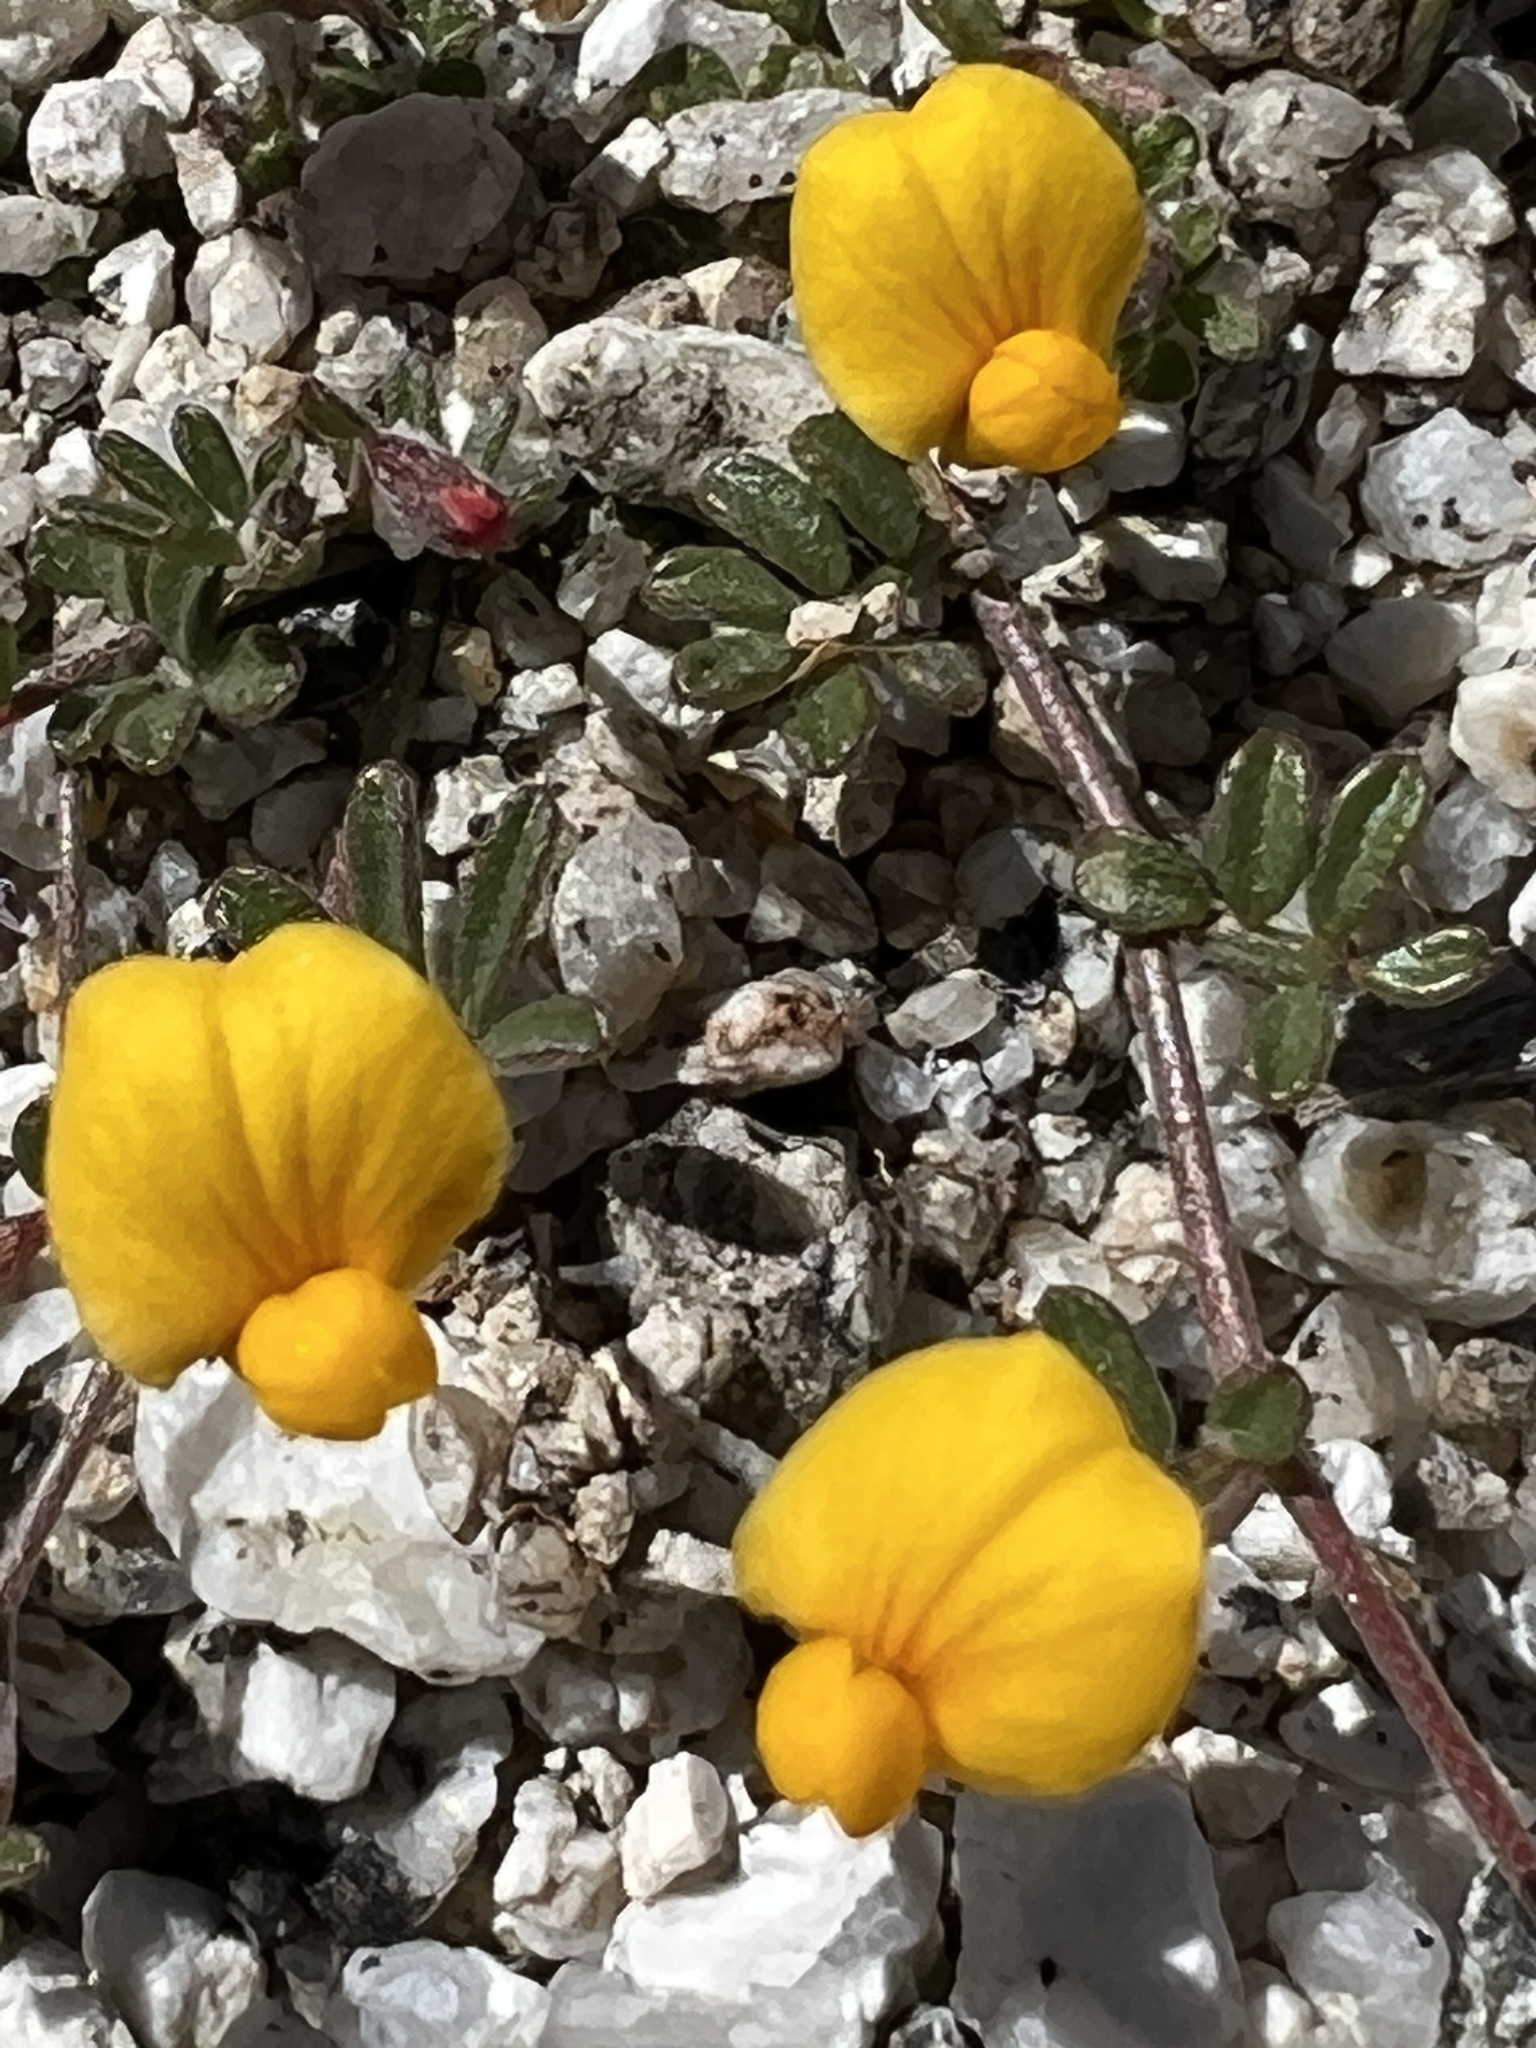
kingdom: Plantae
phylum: Tracheophyta
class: Magnoliopsida
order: Fabales
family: Fabaceae
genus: Acmispon
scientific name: Acmispon strigosus
